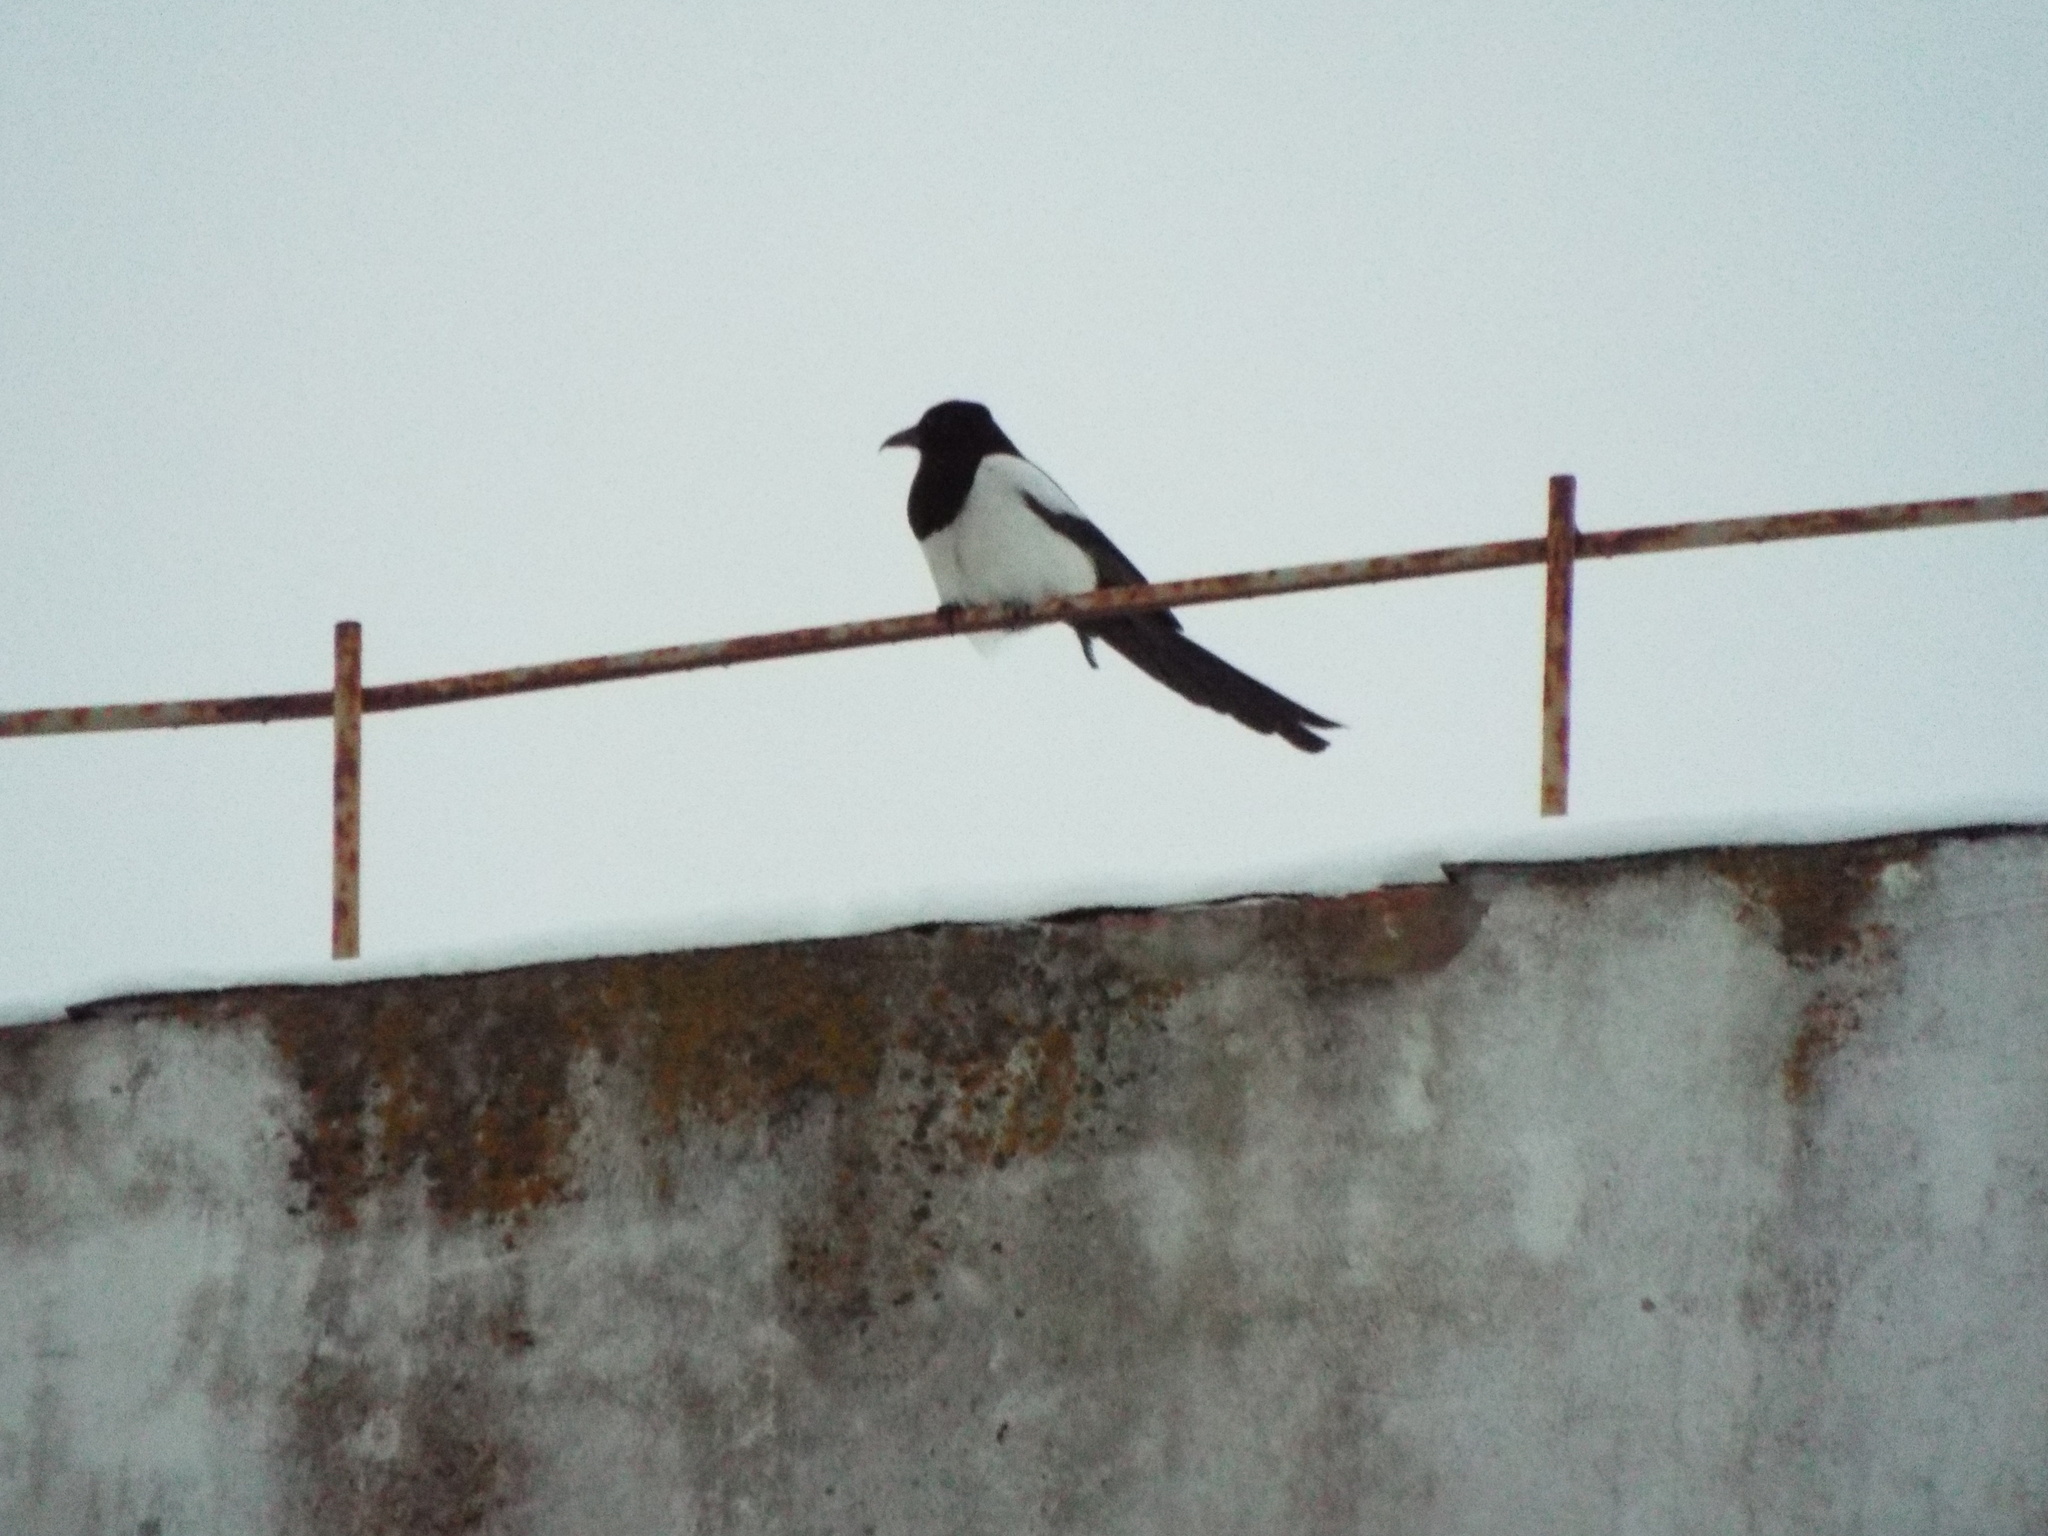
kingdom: Animalia
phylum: Chordata
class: Aves
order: Passeriformes
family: Corvidae
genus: Pica
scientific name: Pica pica
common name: Eurasian magpie
